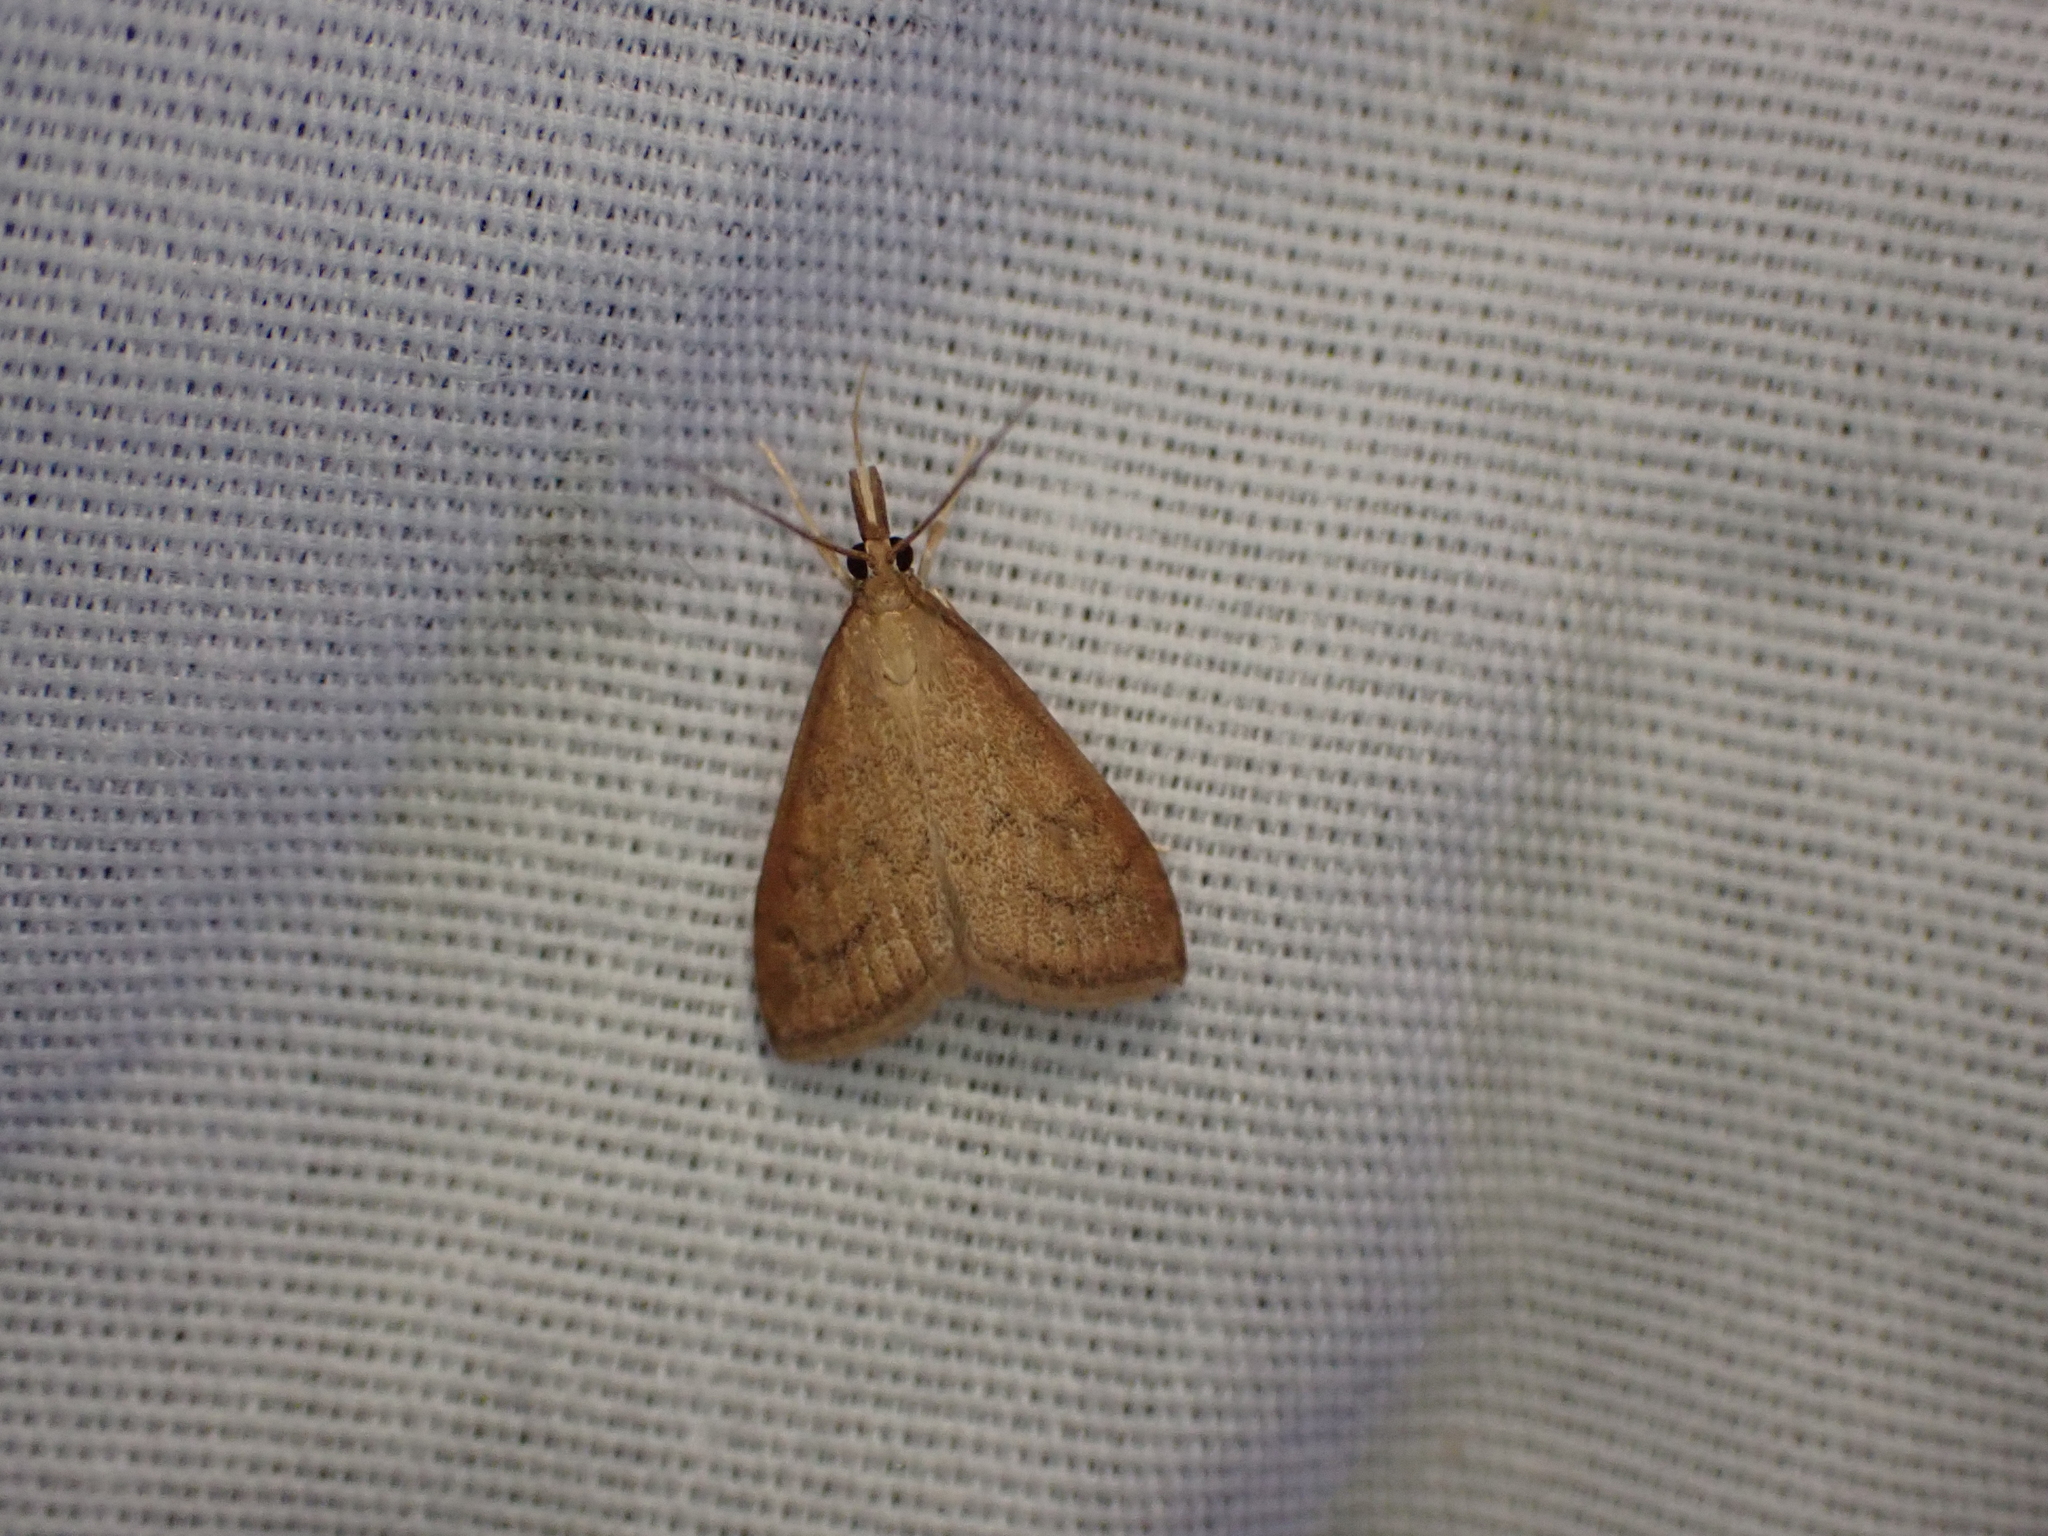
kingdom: Animalia
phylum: Arthropoda
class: Insecta
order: Lepidoptera
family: Crambidae
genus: Udea
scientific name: Udea rubigalis
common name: Celery leaftier moth
